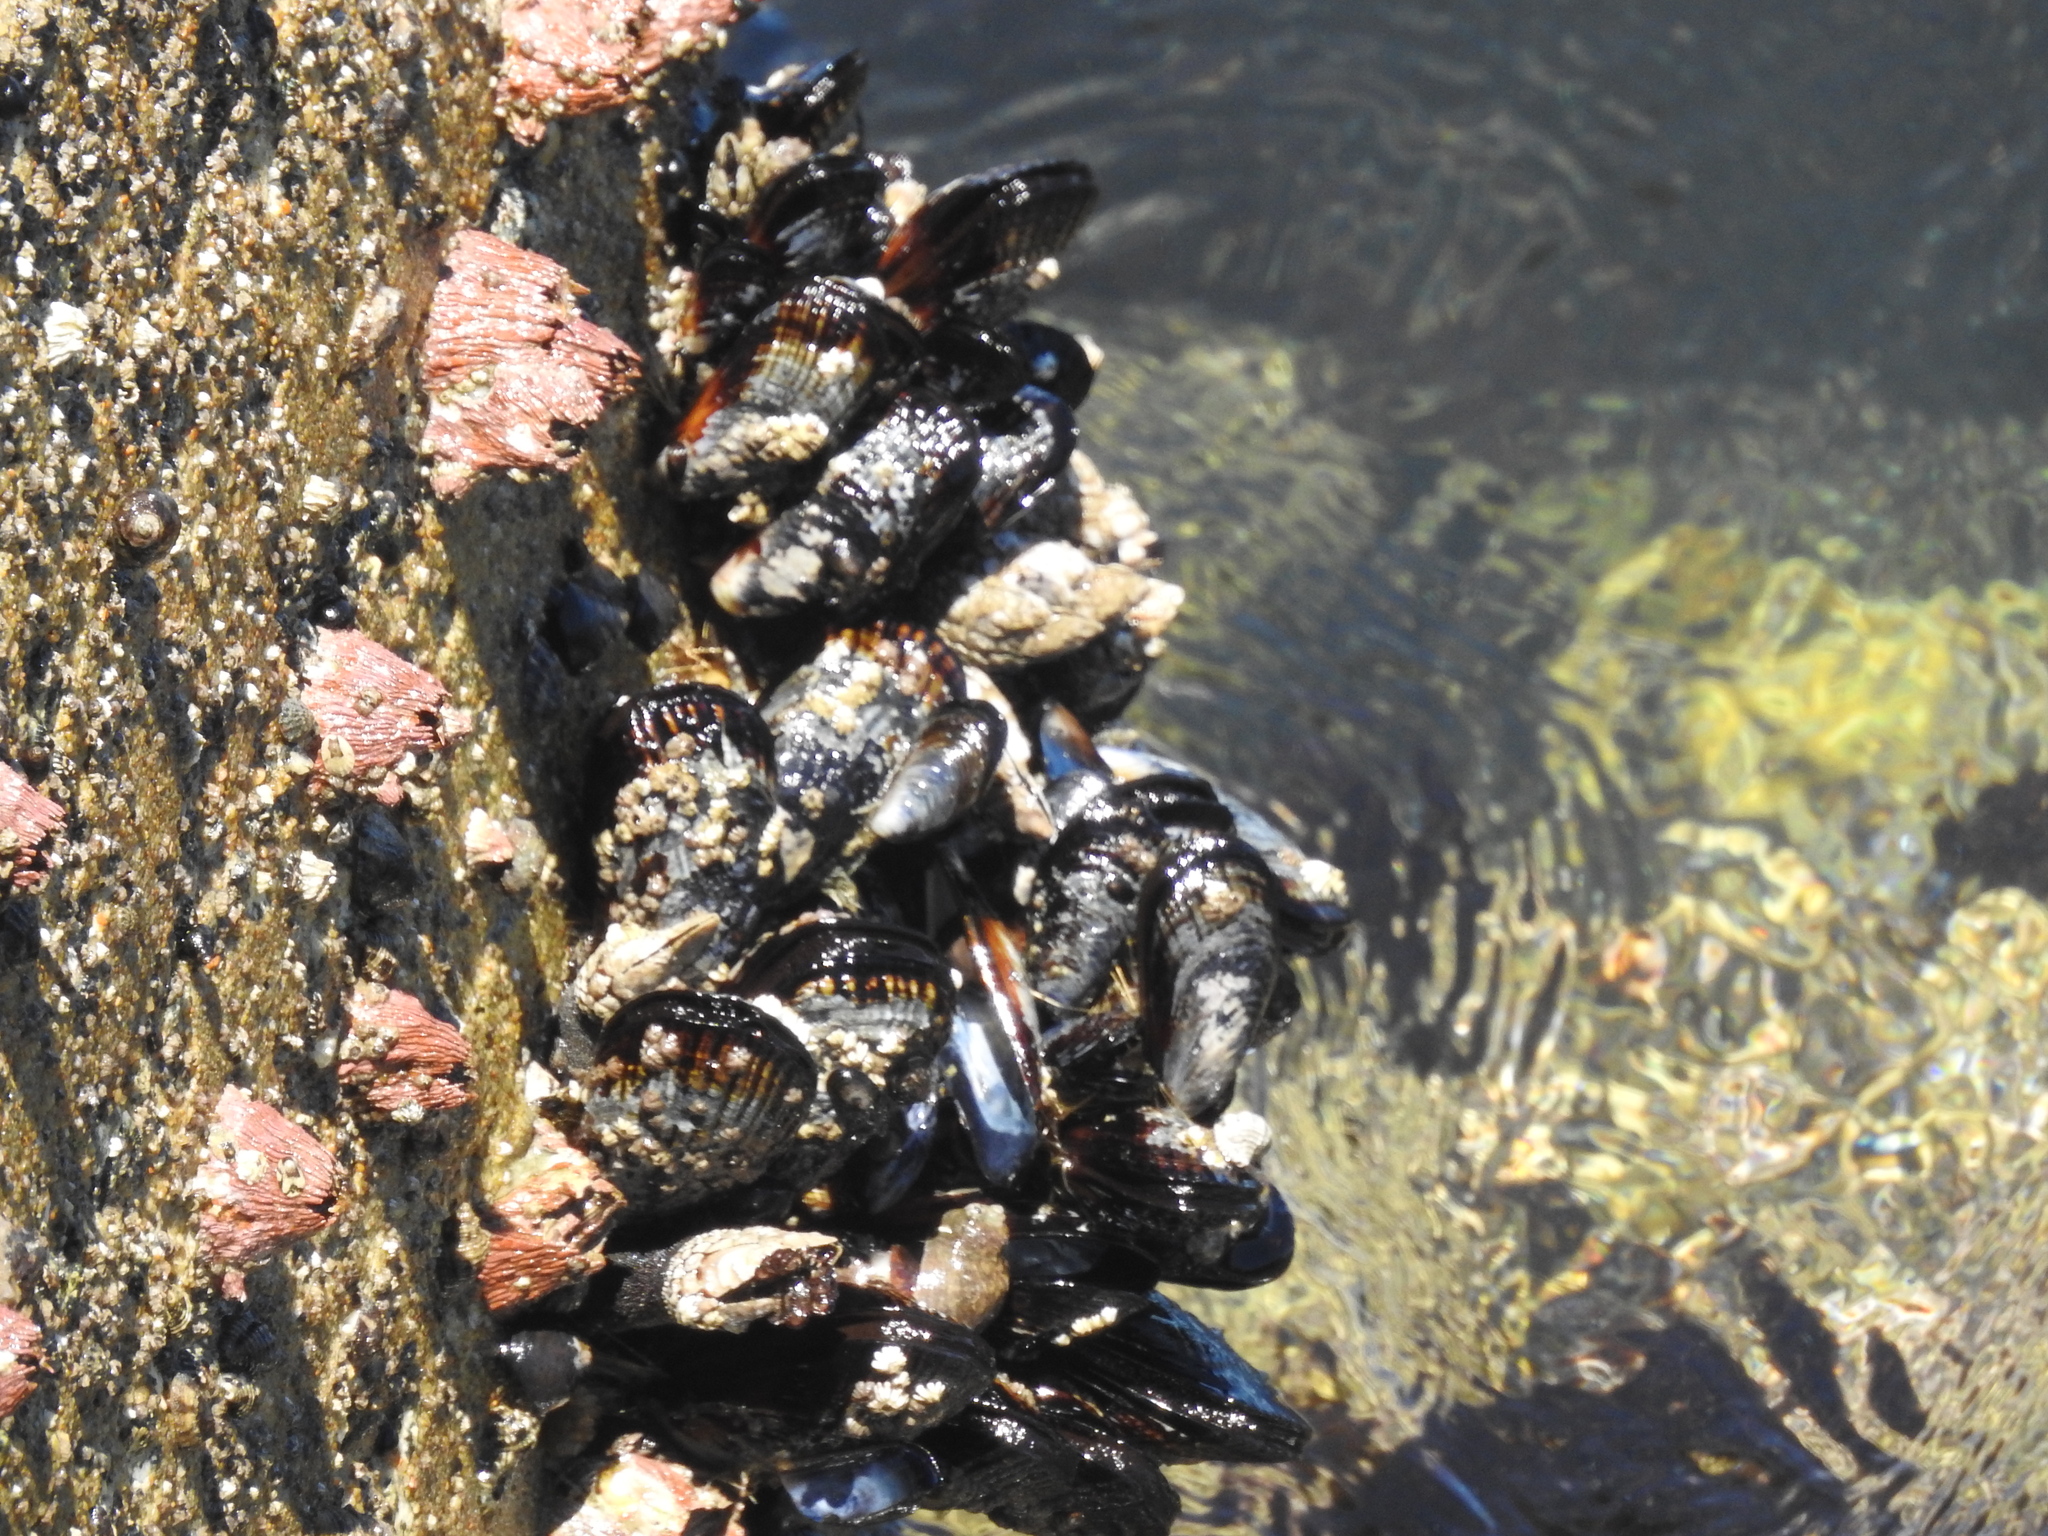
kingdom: Animalia
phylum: Mollusca
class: Bivalvia
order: Mytilida
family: Mytilidae
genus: Mytilus
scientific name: Mytilus californianus
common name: California mussel
